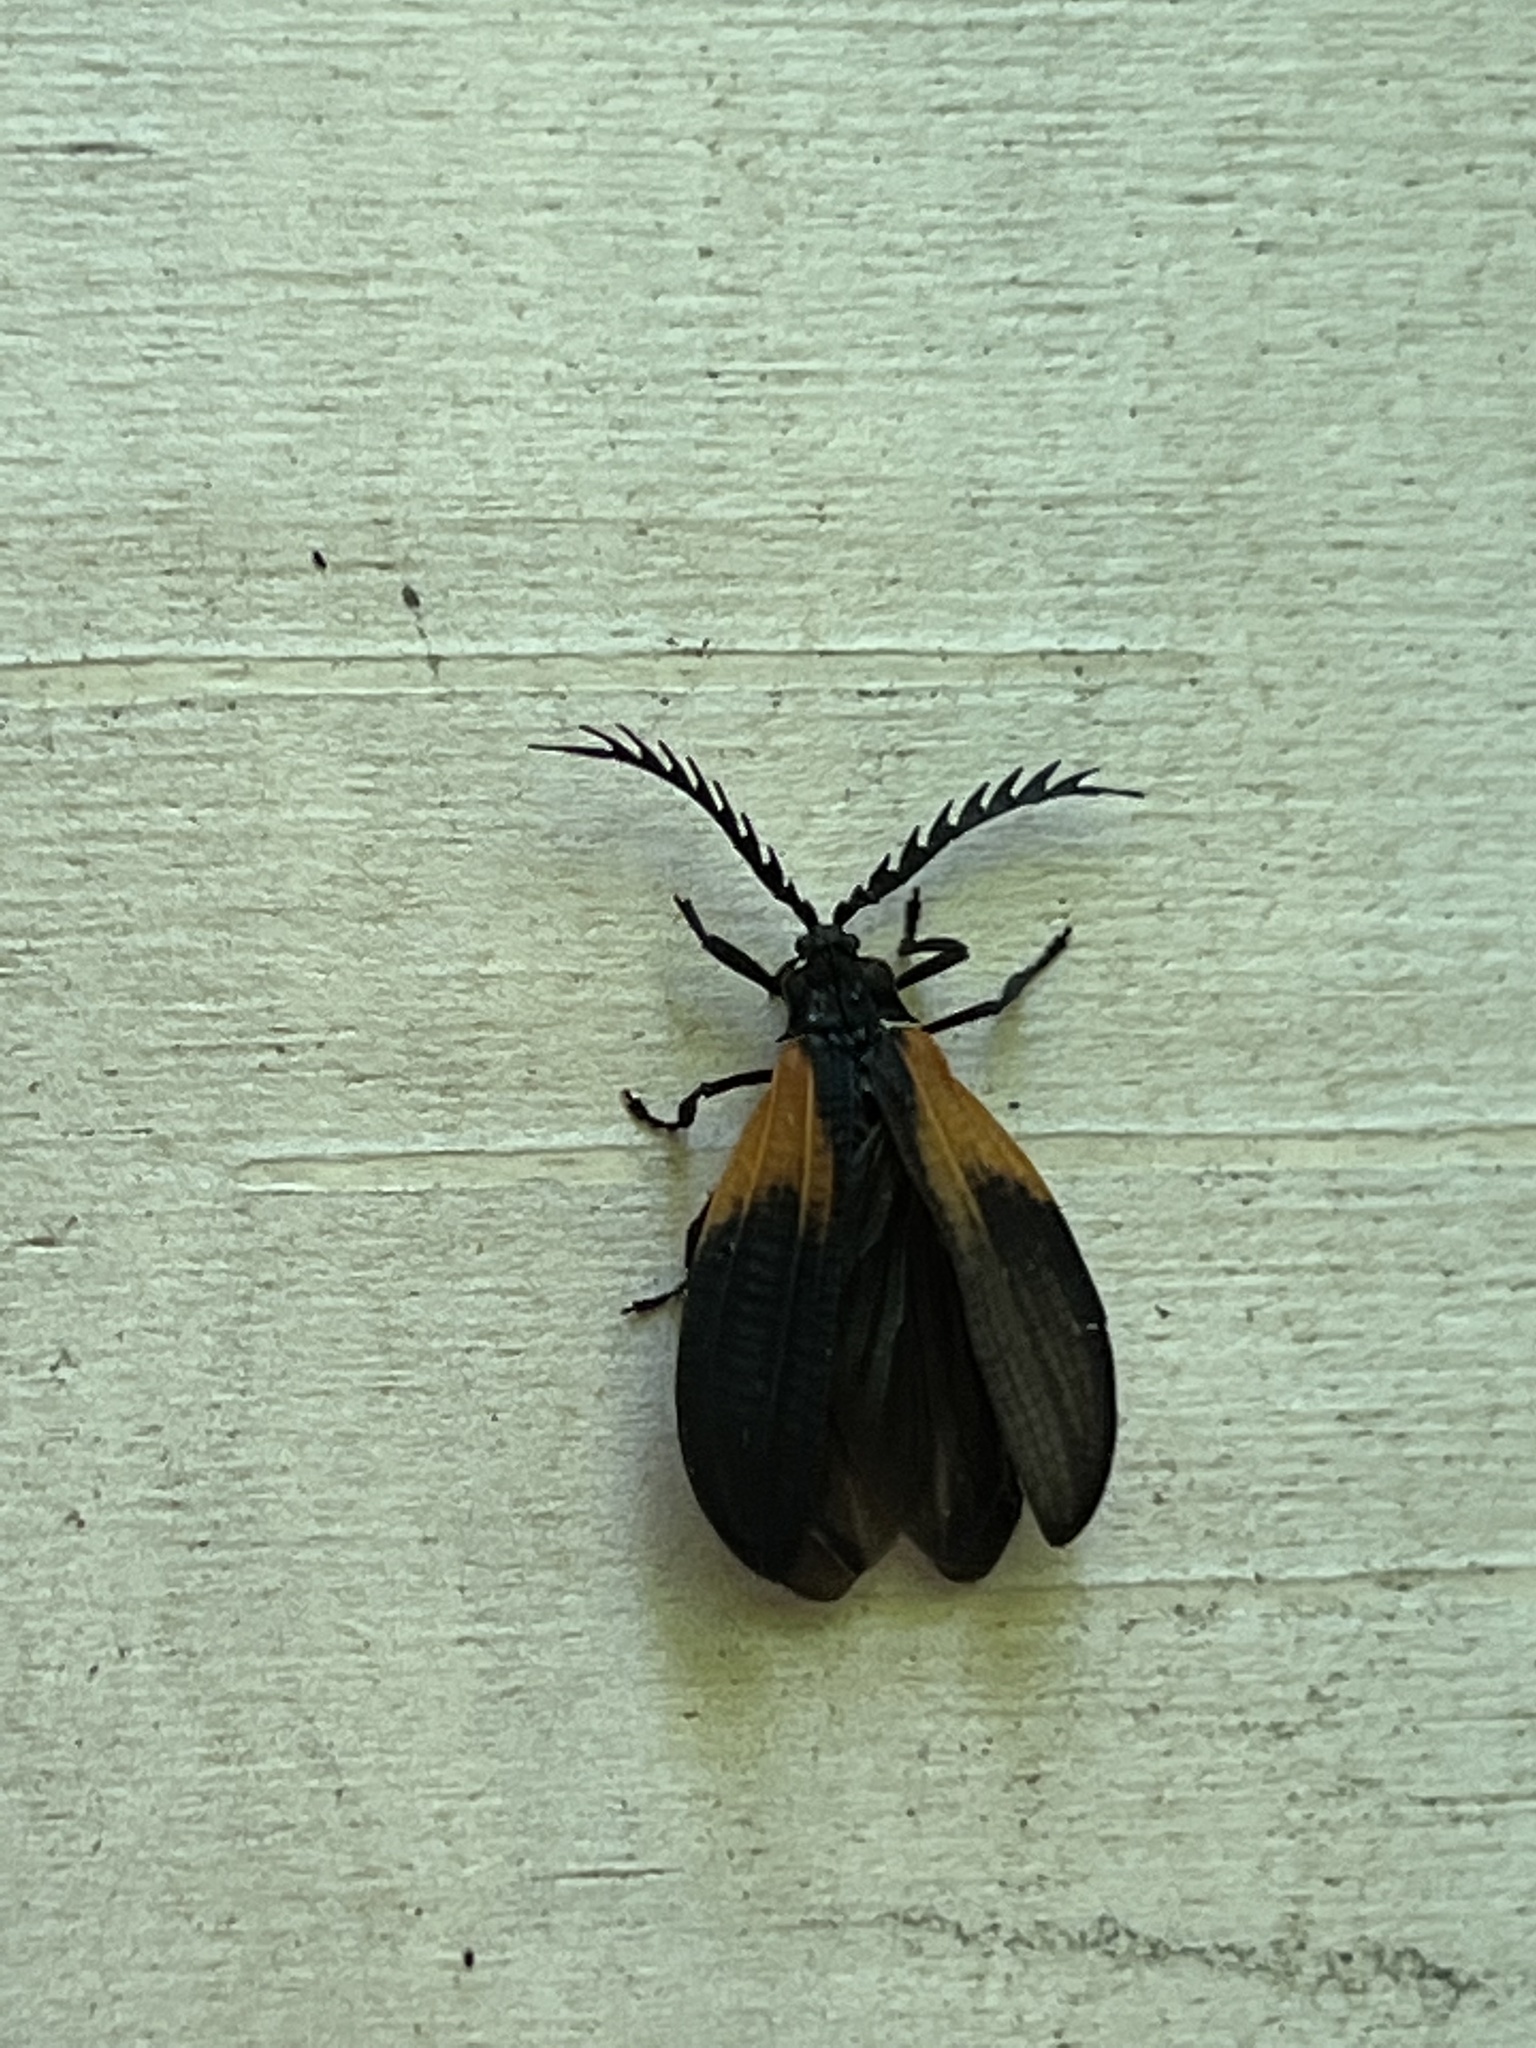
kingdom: Animalia
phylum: Arthropoda
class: Insecta
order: Coleoptera
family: Lycidae
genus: Caenia
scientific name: Caenia dimidiata
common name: Terminal net-winged beetle
